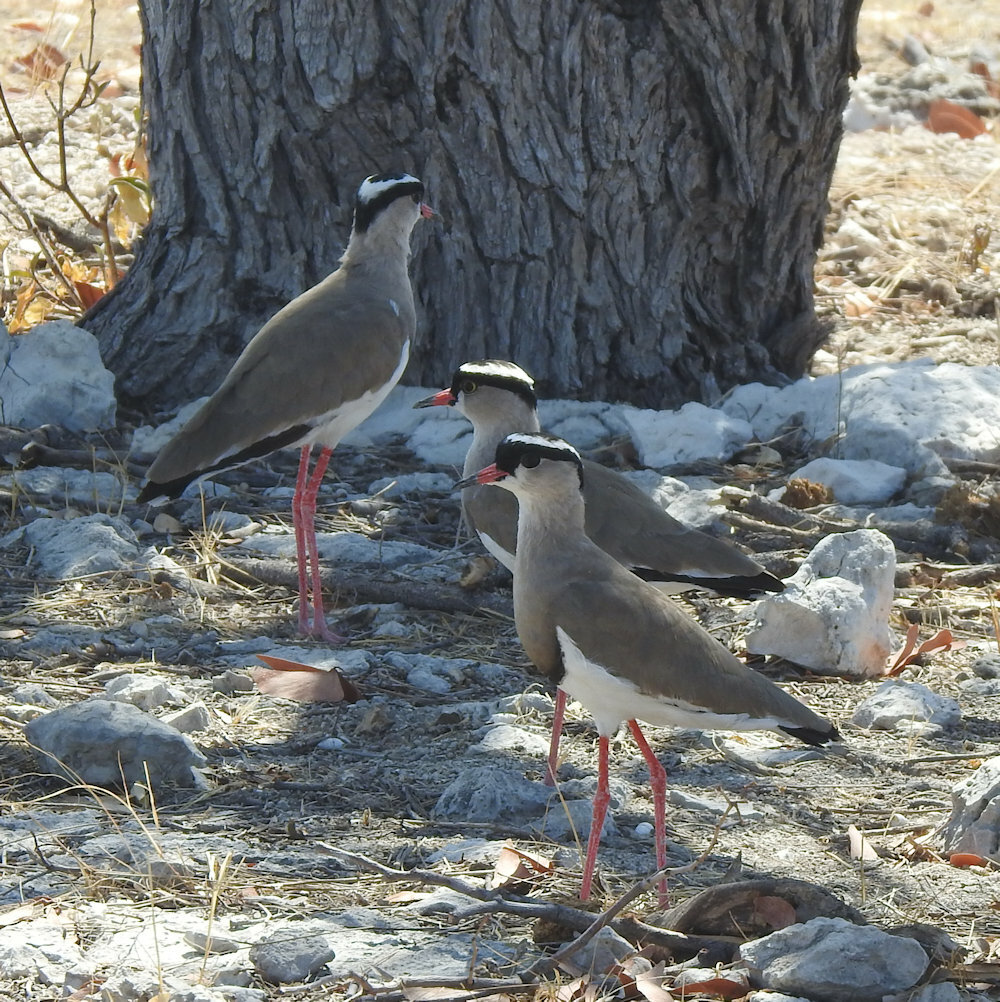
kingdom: Animalia
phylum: Chordata
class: Aves
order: Charadriiformes
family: Charadriidae
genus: Vanellus
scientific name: Vanellus coronatus
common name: Crowned lapwing
